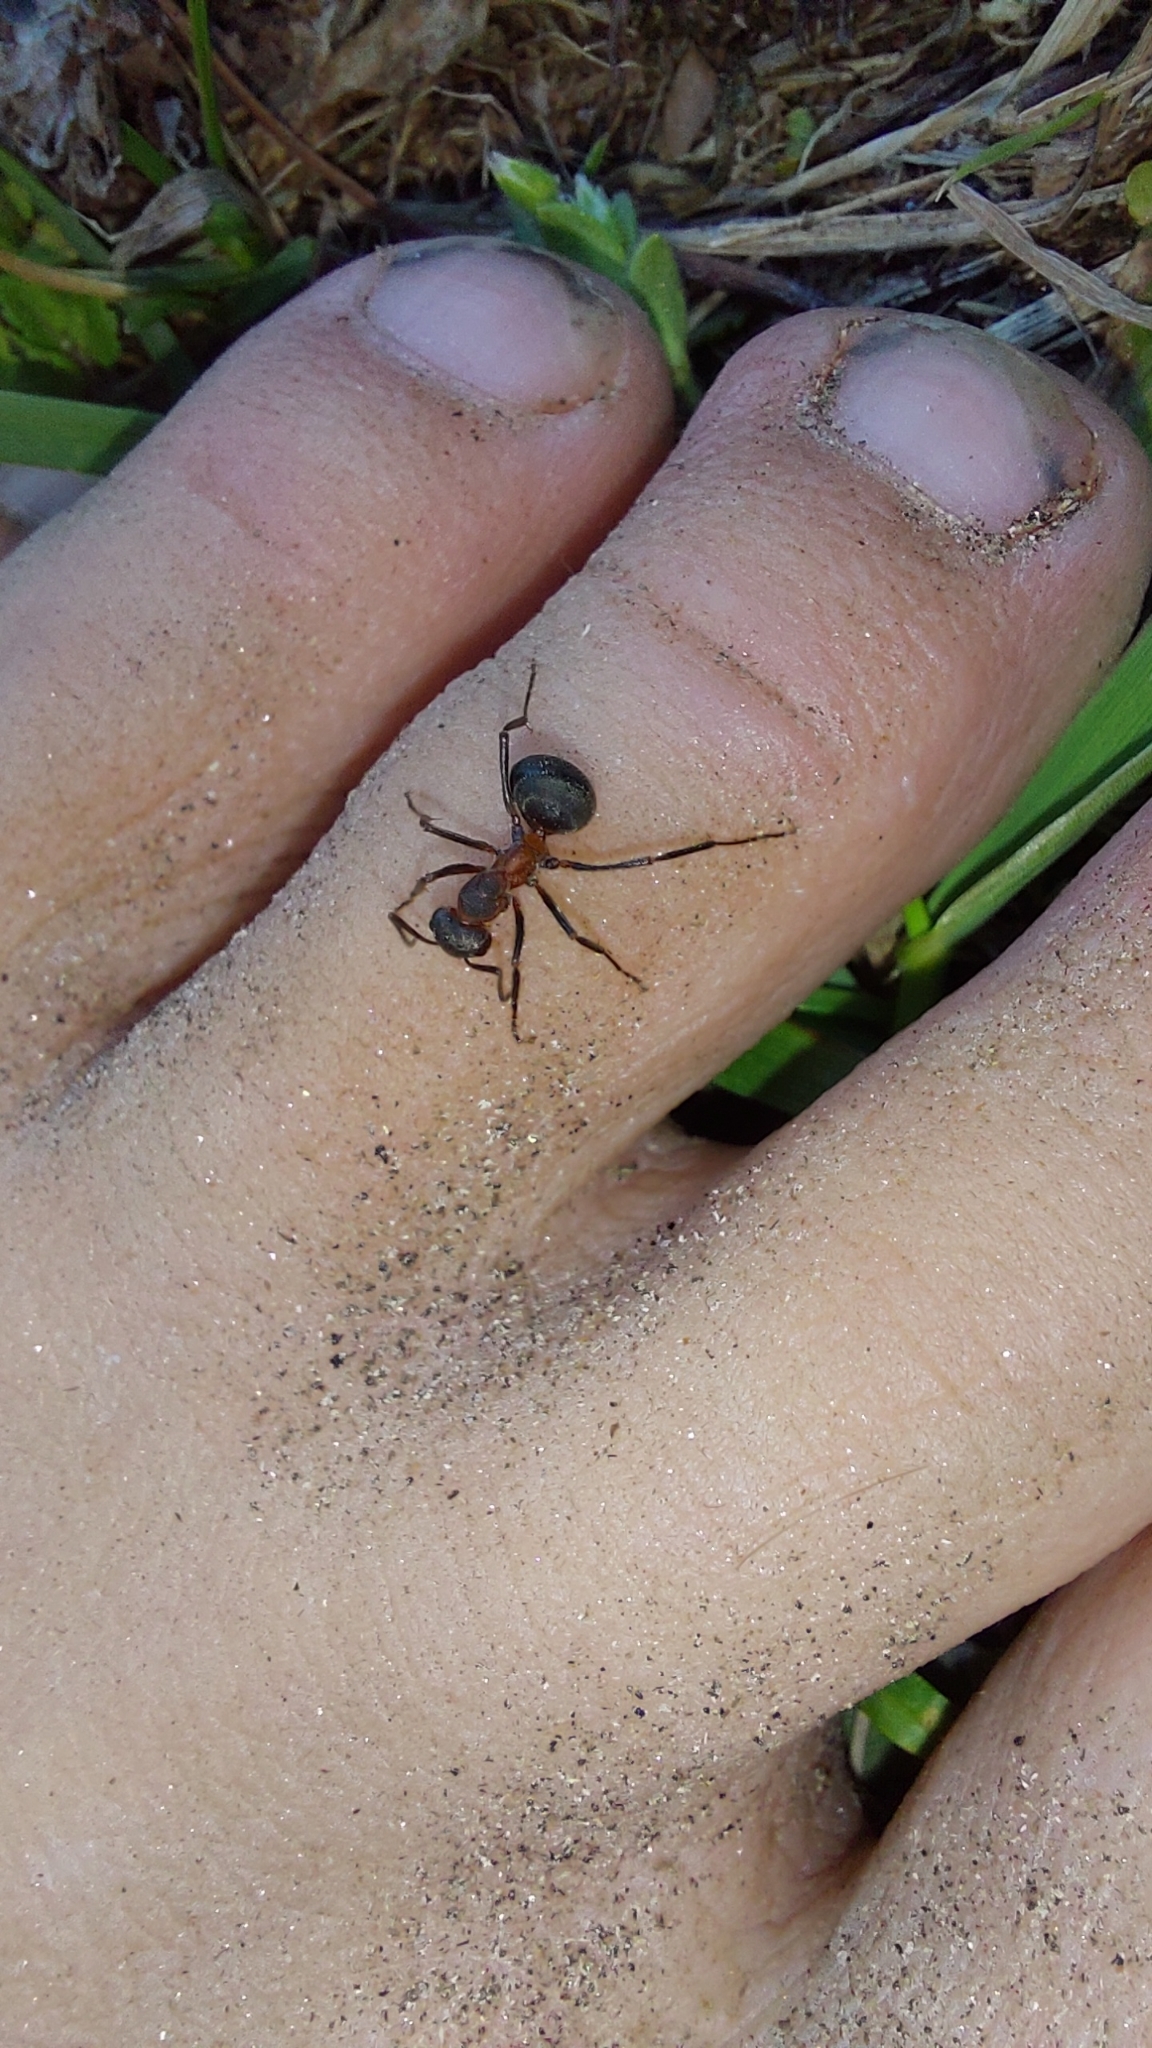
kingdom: Animalia
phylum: Arthropoda
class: Insecta
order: Hymenoptera
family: Formicidae
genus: Formica
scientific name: Formica pratensis
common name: European red wood ant
